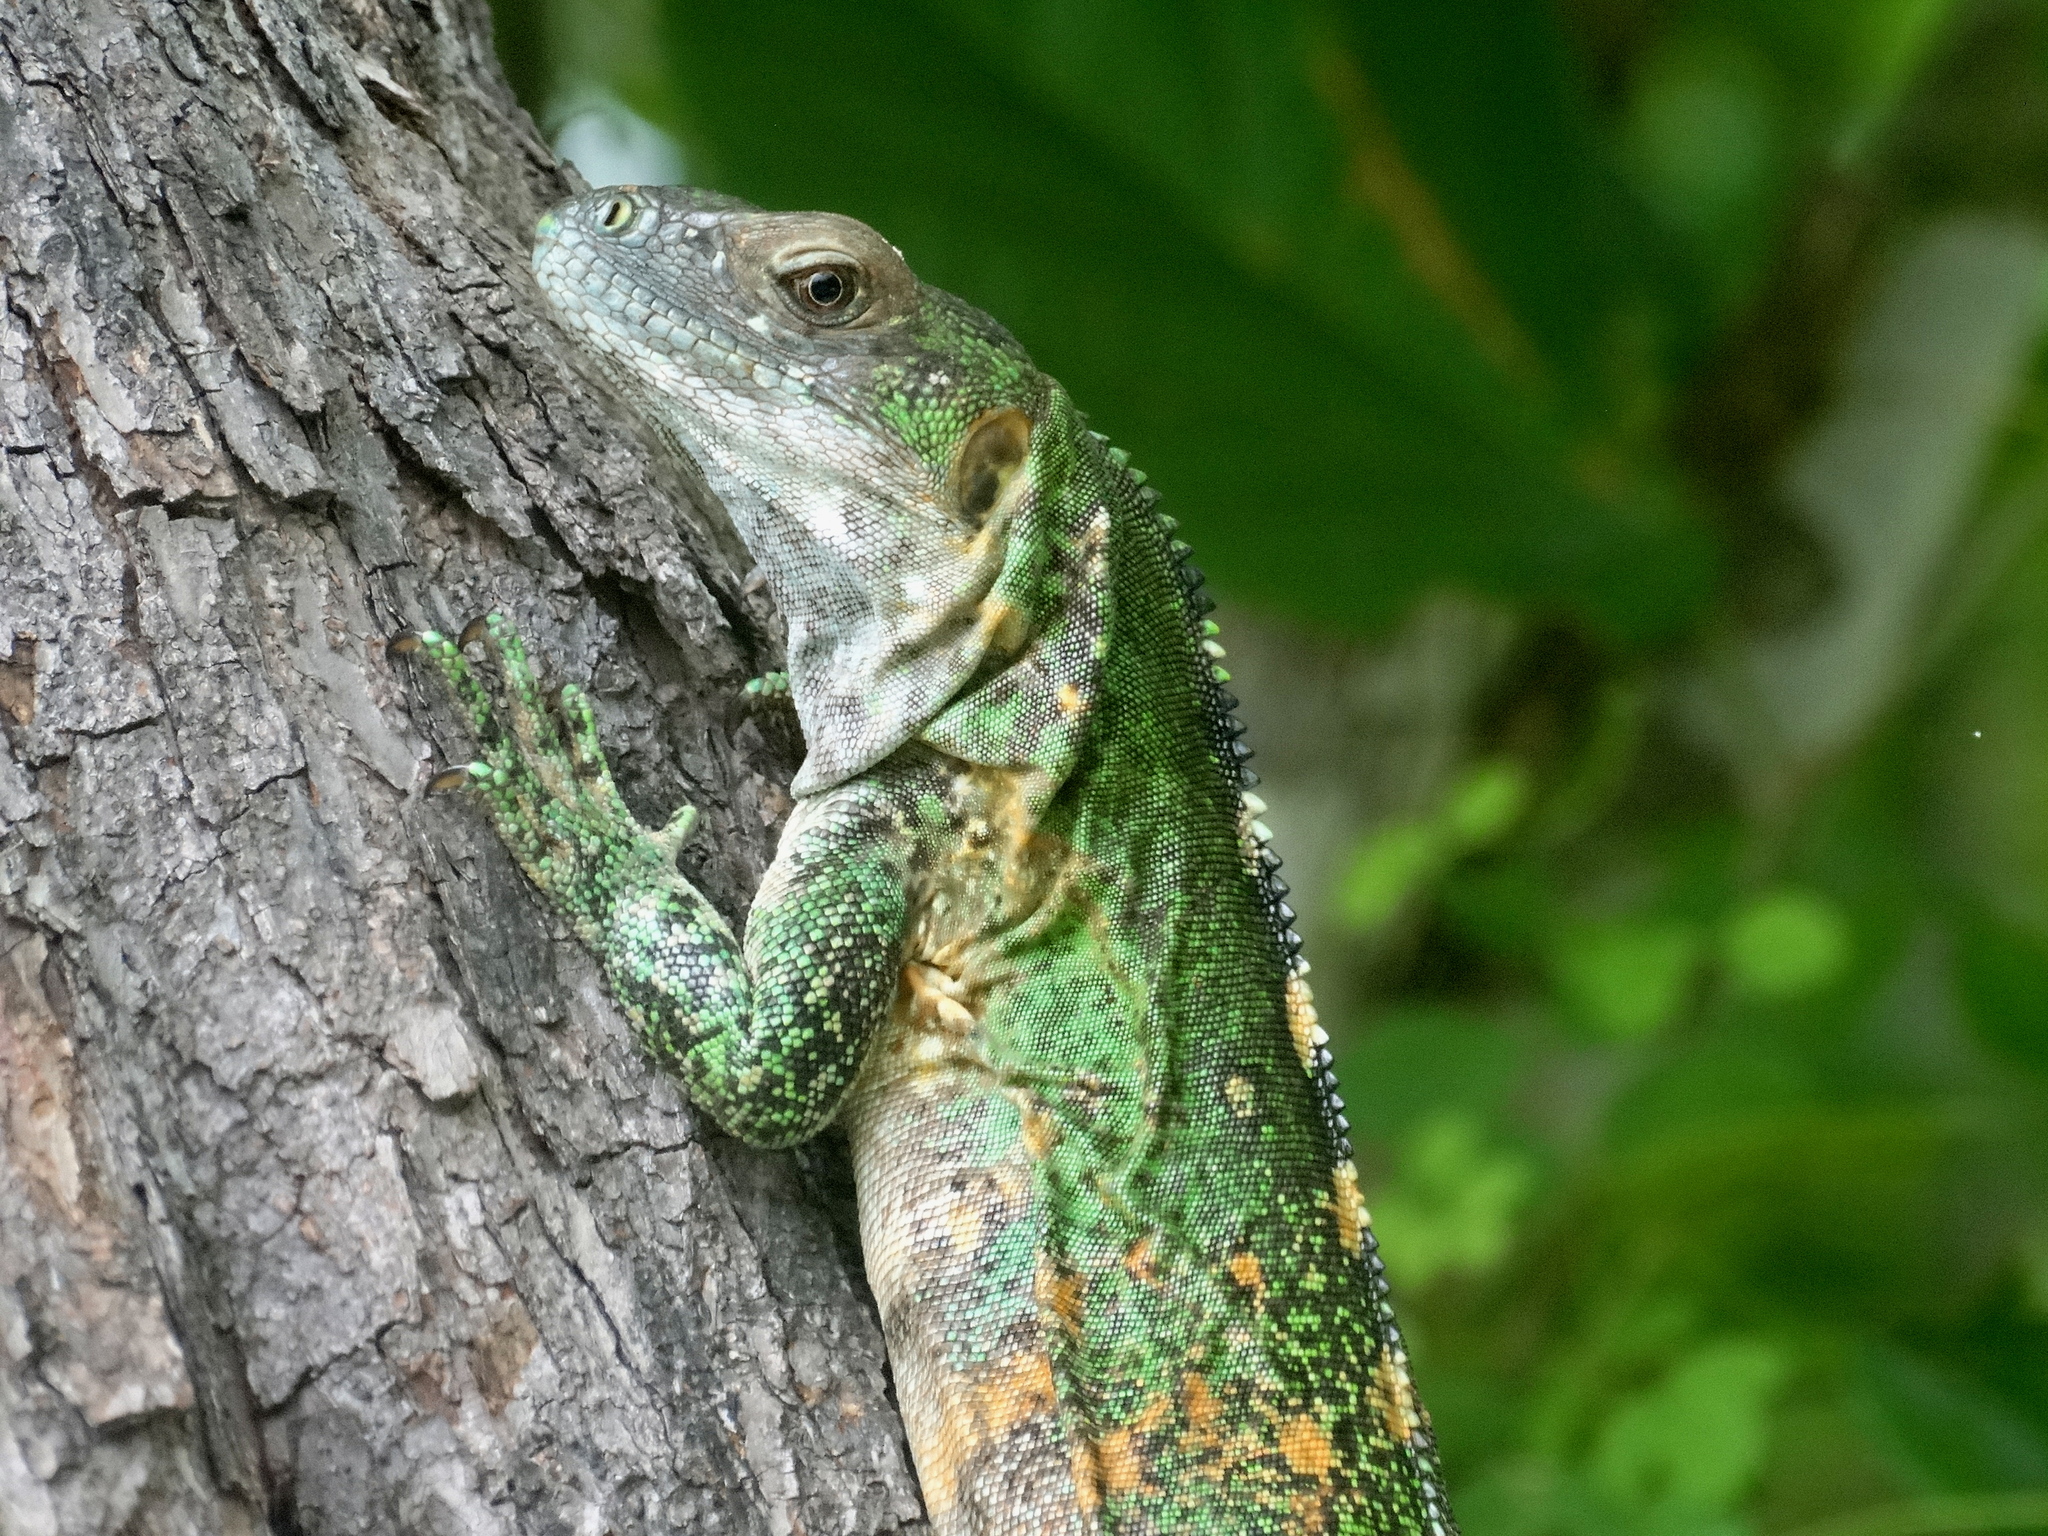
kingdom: Animalia
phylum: Chordata
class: Squamata
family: Iguanidae
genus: Ctenosaura
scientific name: Ctenosaura pectinata
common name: Guerreran spiny-tailed iguana
